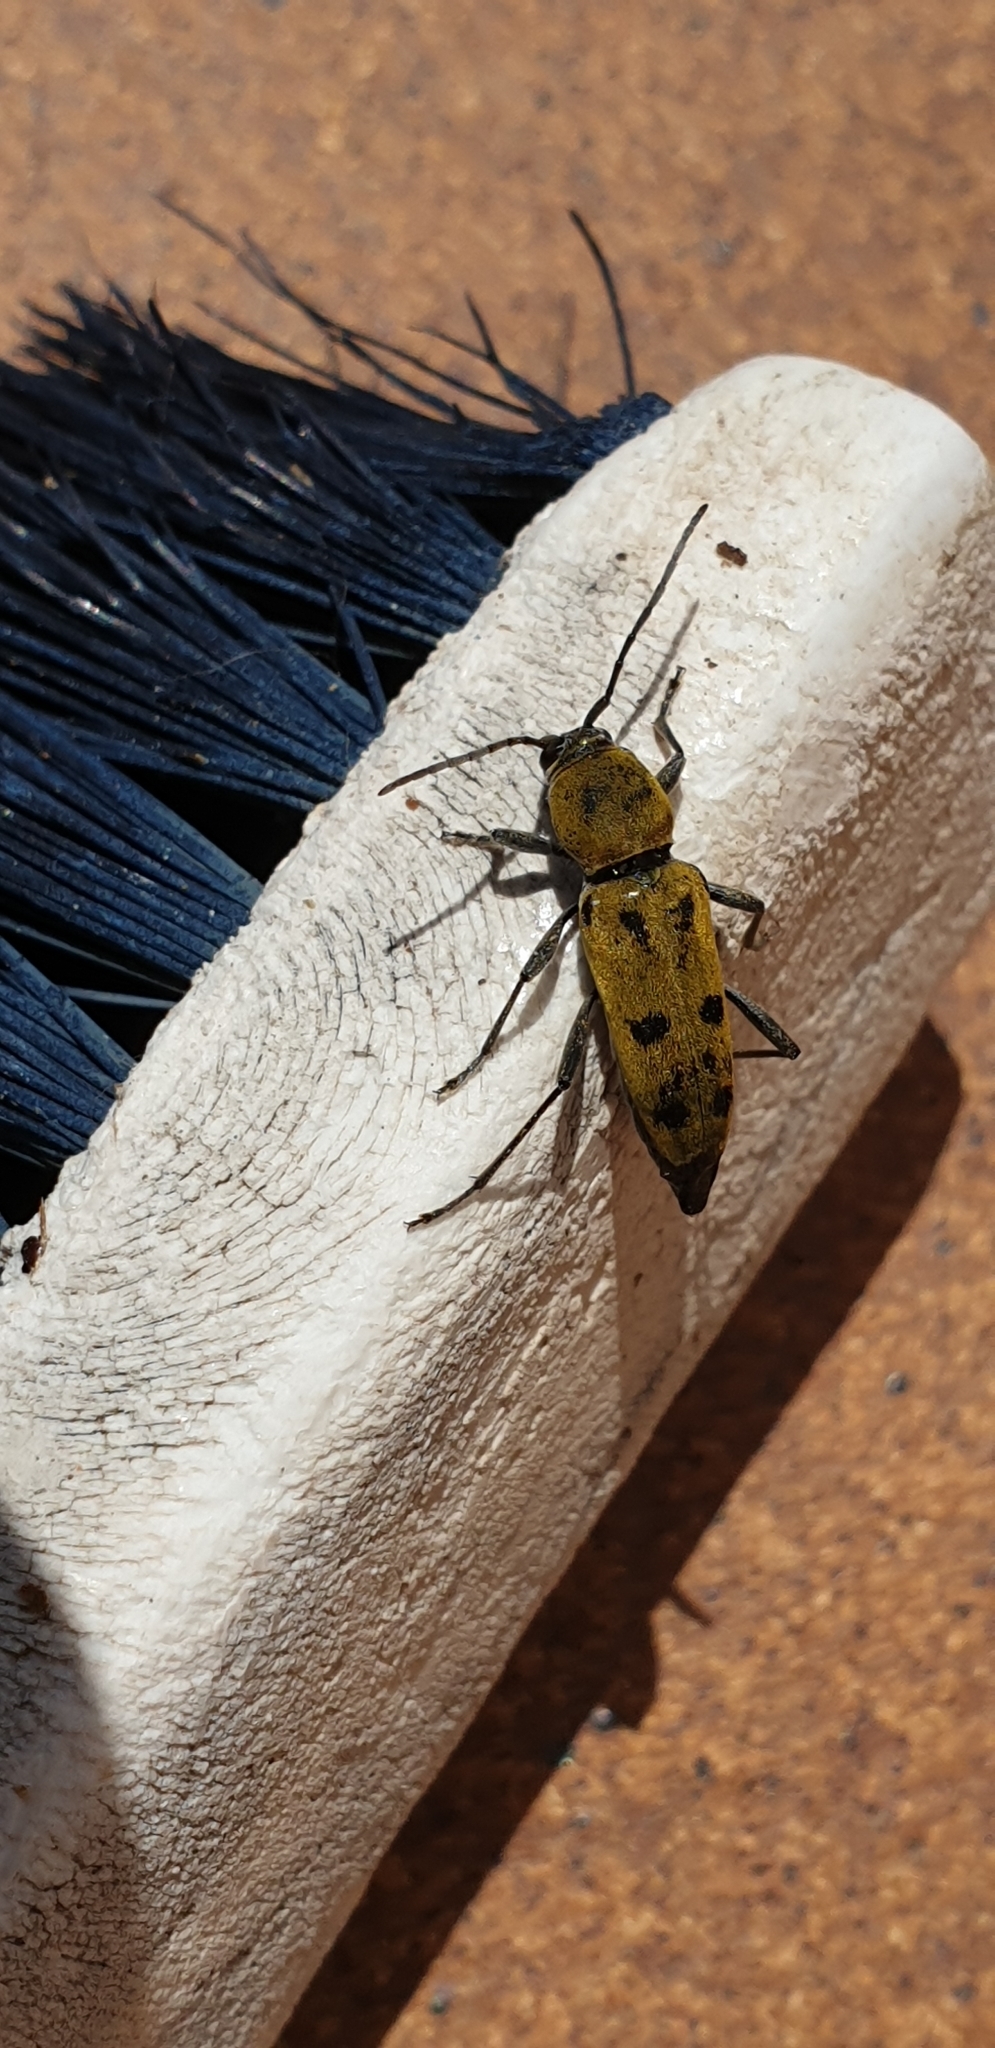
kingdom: Animalia
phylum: Arthropoda
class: Insecta
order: Coleoptera
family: Cerambycidae
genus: Chlorophorus
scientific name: Chlorophorus glabromaculatus
